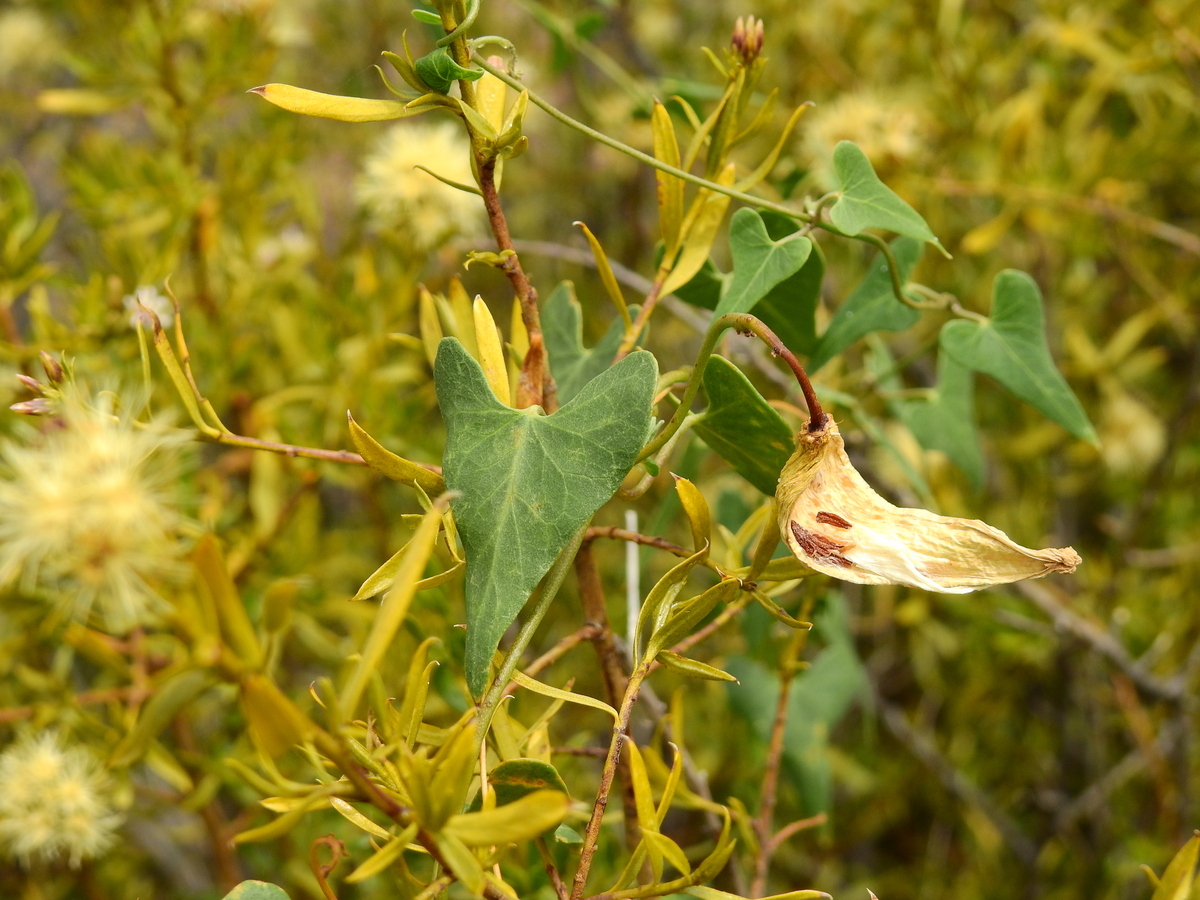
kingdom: Plantae
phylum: Tracheophyta
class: Magnoliopsida
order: Gentianales
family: Apocynaceae
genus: Philibertia
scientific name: Philibertia gilliesii
